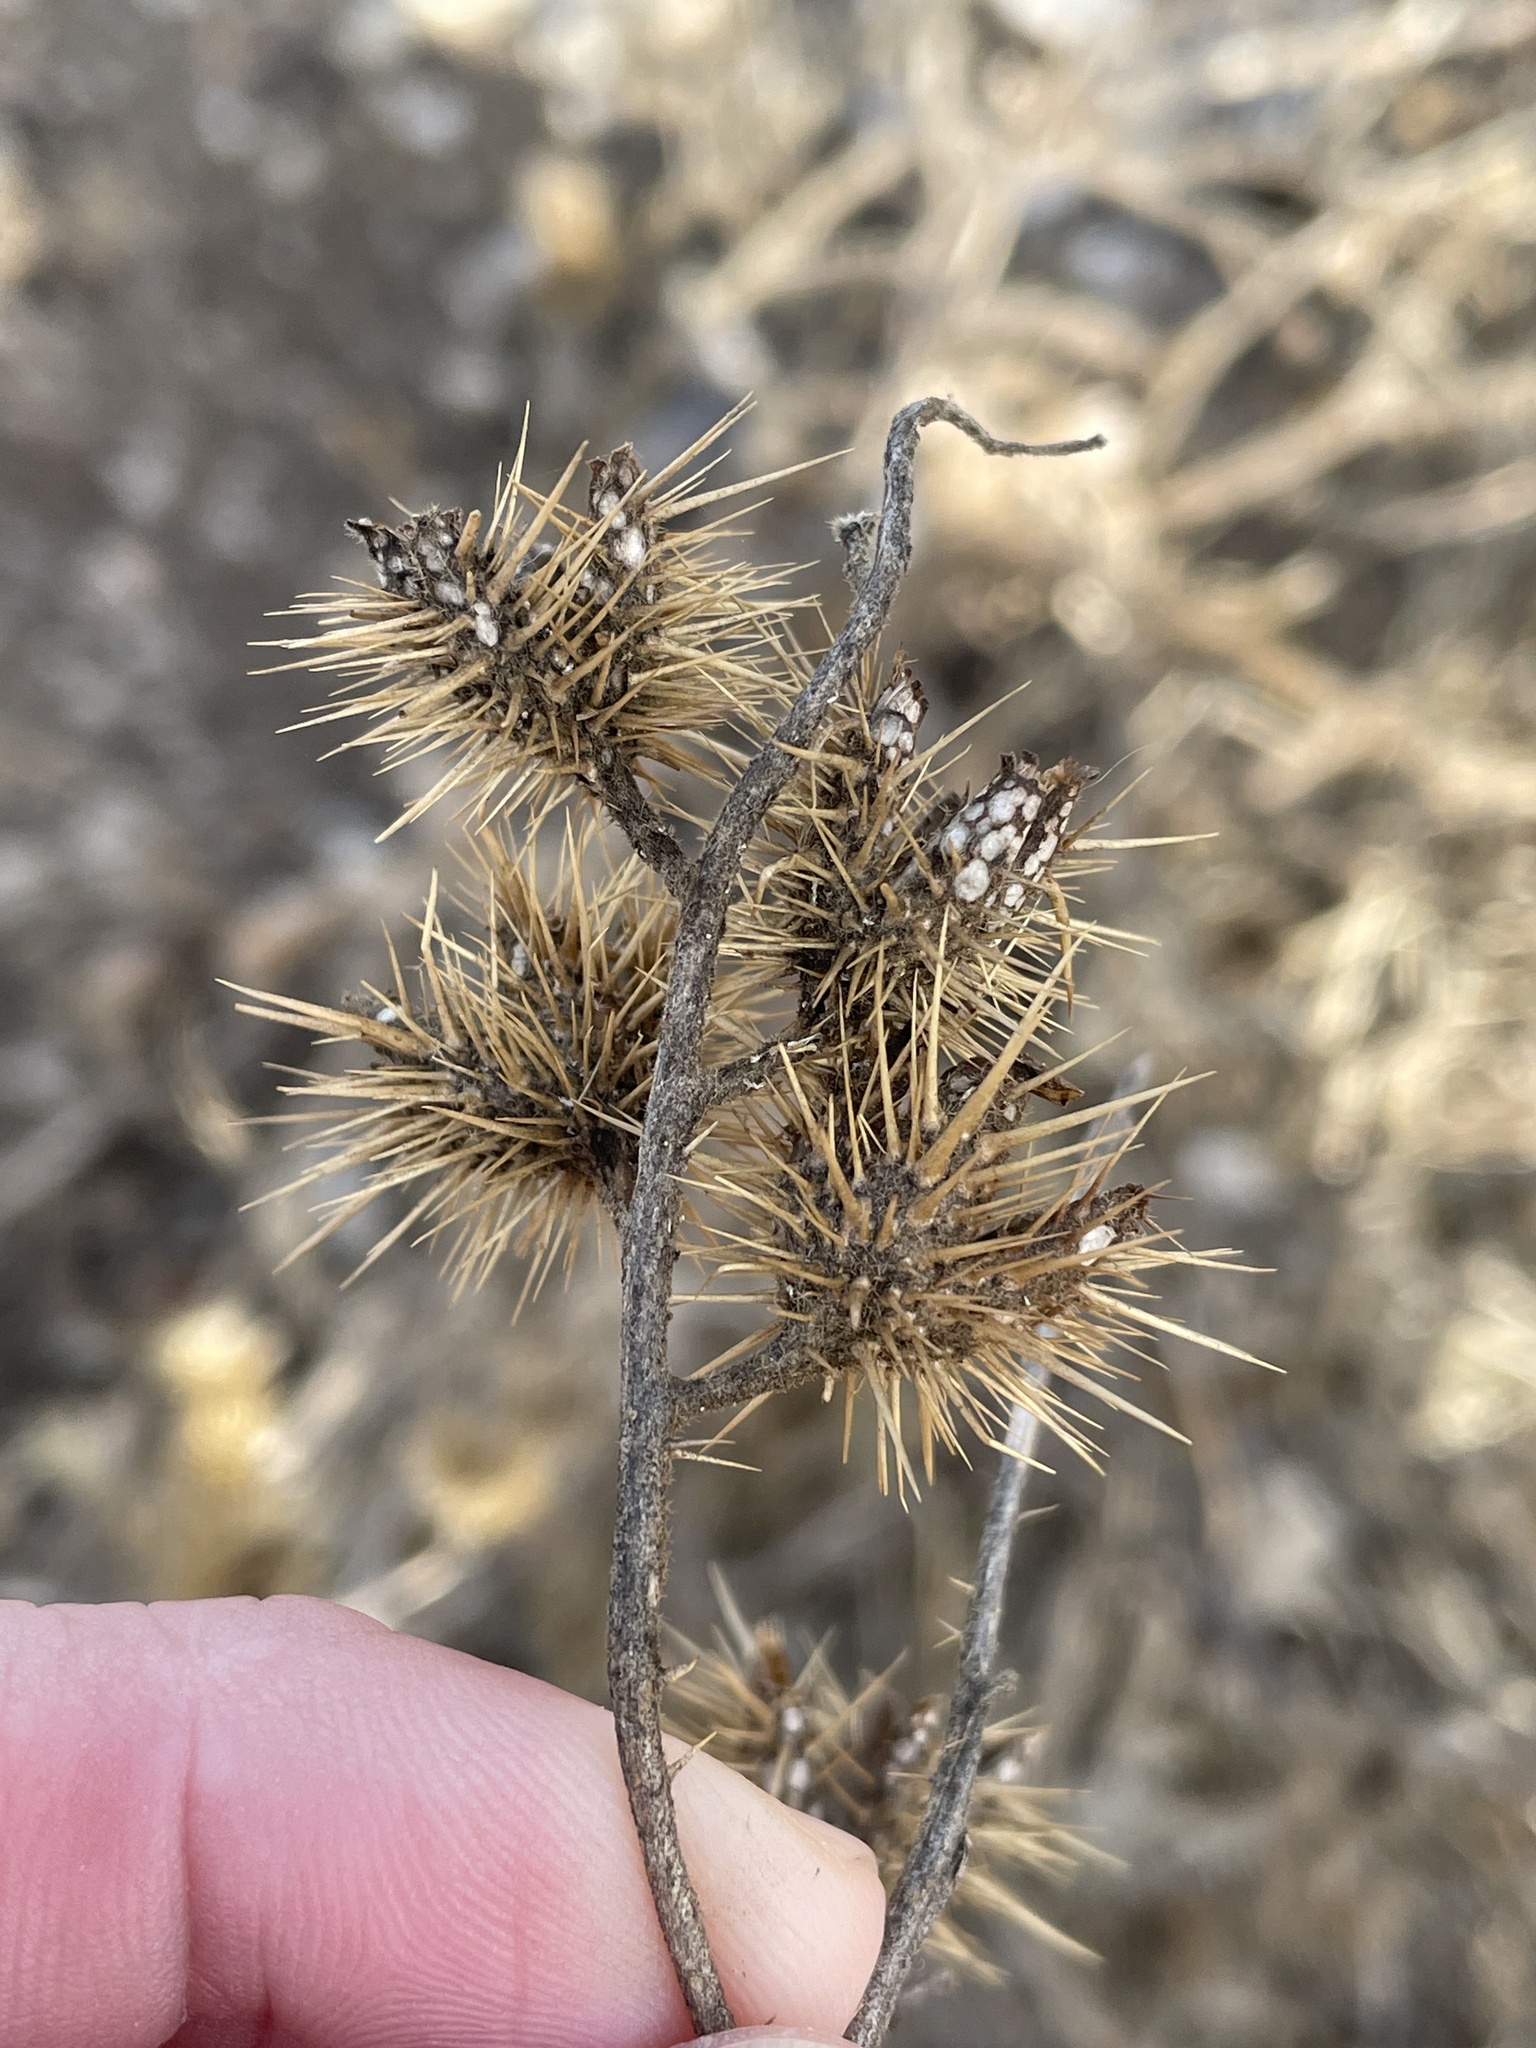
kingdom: Plantae
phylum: Tracheophyta
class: Magnoliopsida
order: Solanales
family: Solanaceae
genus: Solanum
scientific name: Solanum angustifolium
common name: Buffalobur nightshade
